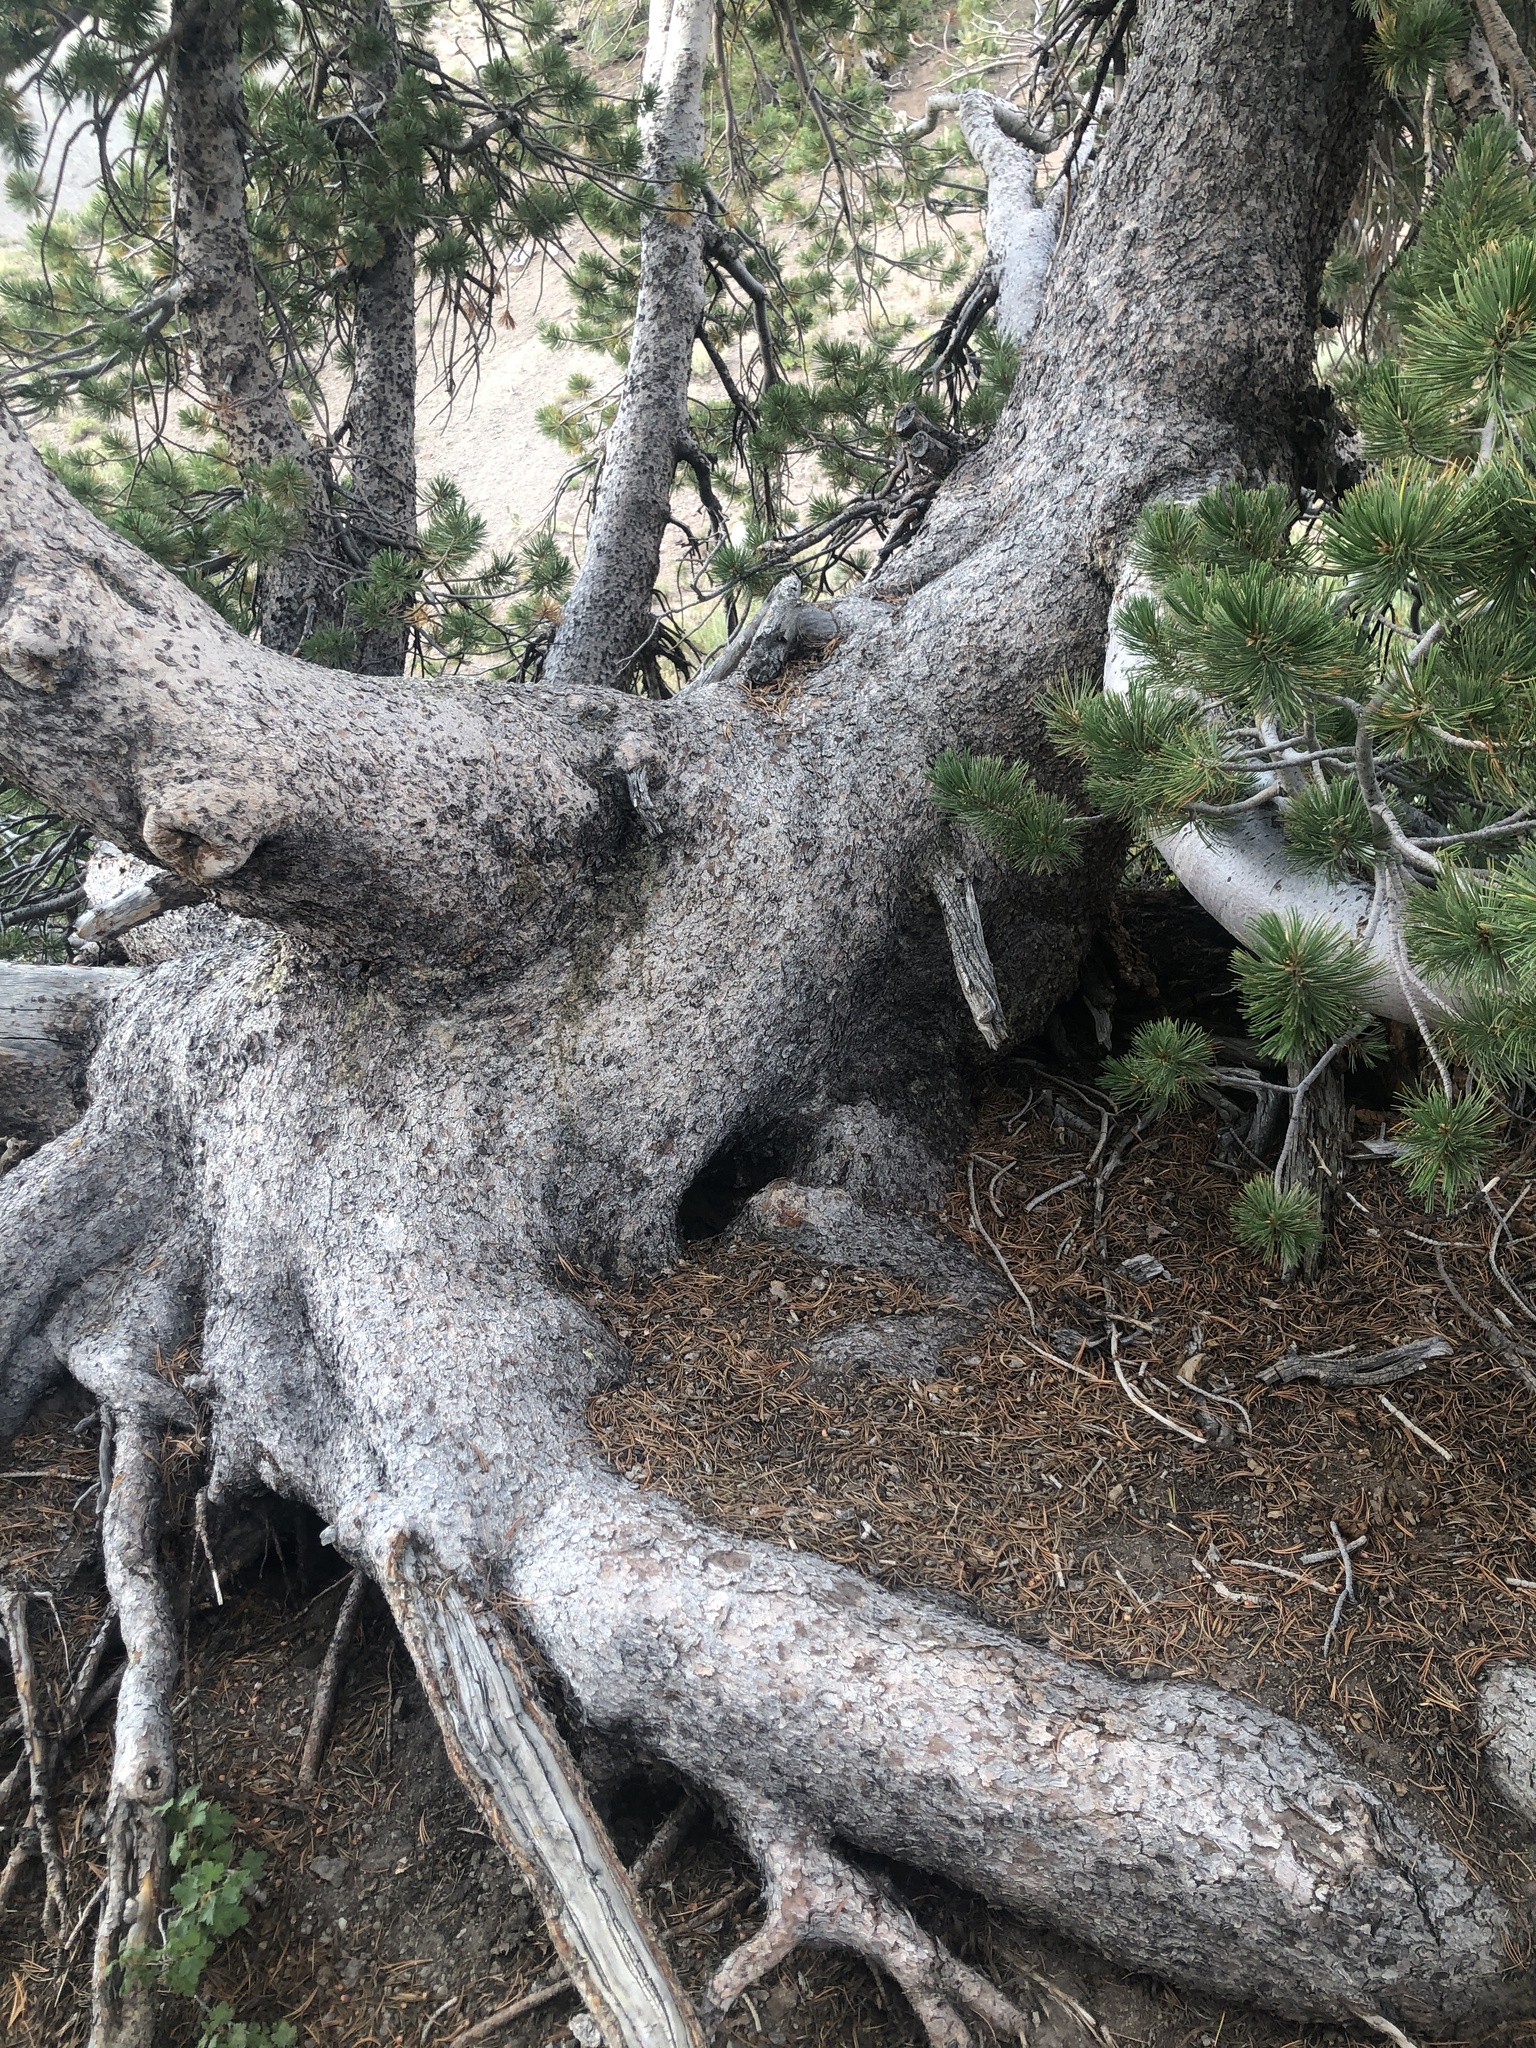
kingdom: Plantae
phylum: Tracheophyta
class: Pinopsida
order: Pinales
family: Pinaceae
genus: Pinus
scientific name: Pinus albicaulis
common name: Whitebark pine
